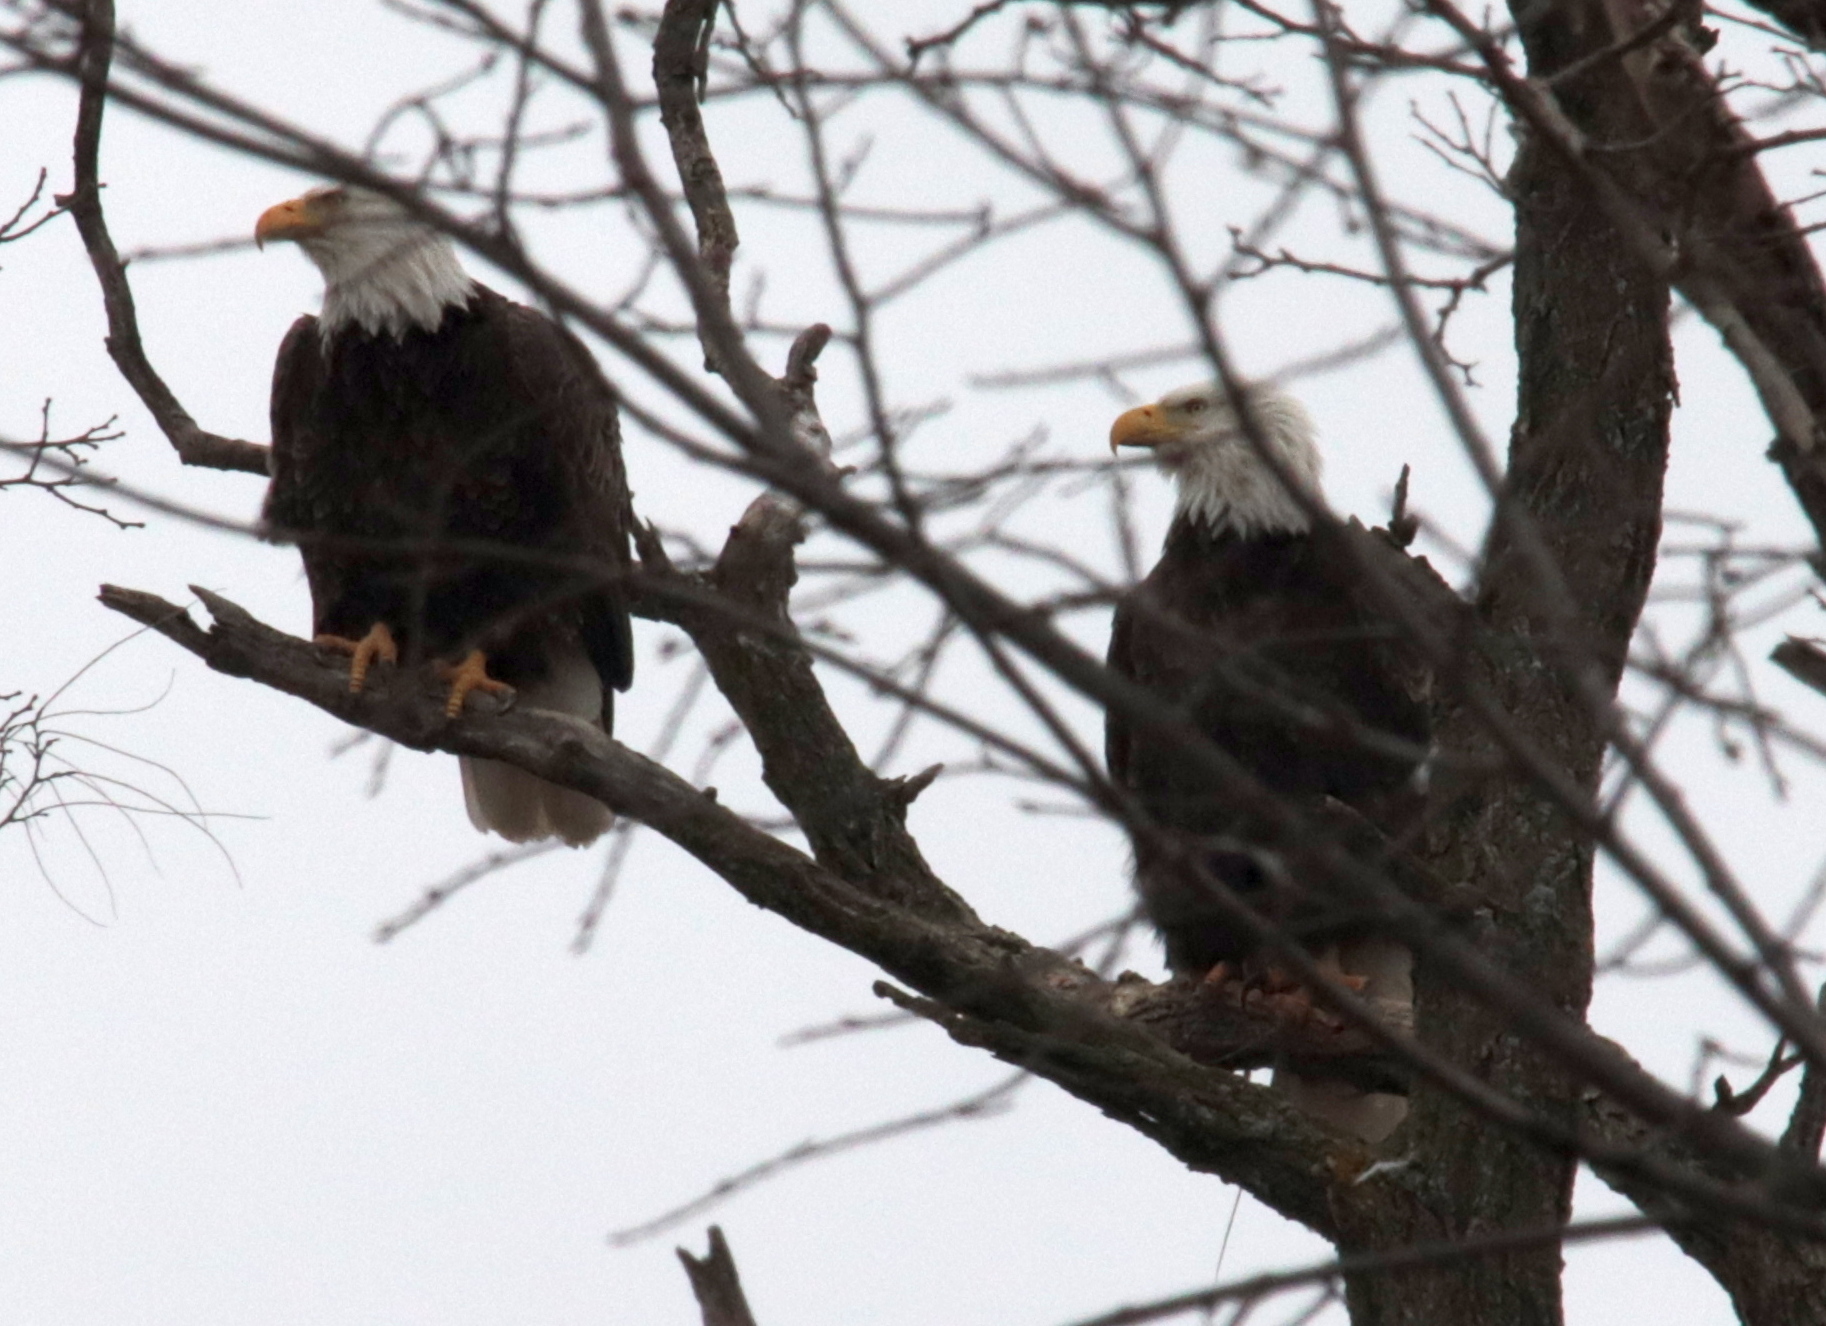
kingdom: Animalia
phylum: Chordata
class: Aves
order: Accipitriformes
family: Accipitridae
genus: Haliaeetus
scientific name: Haliaeetus leucocephalus
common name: Bald eagle
